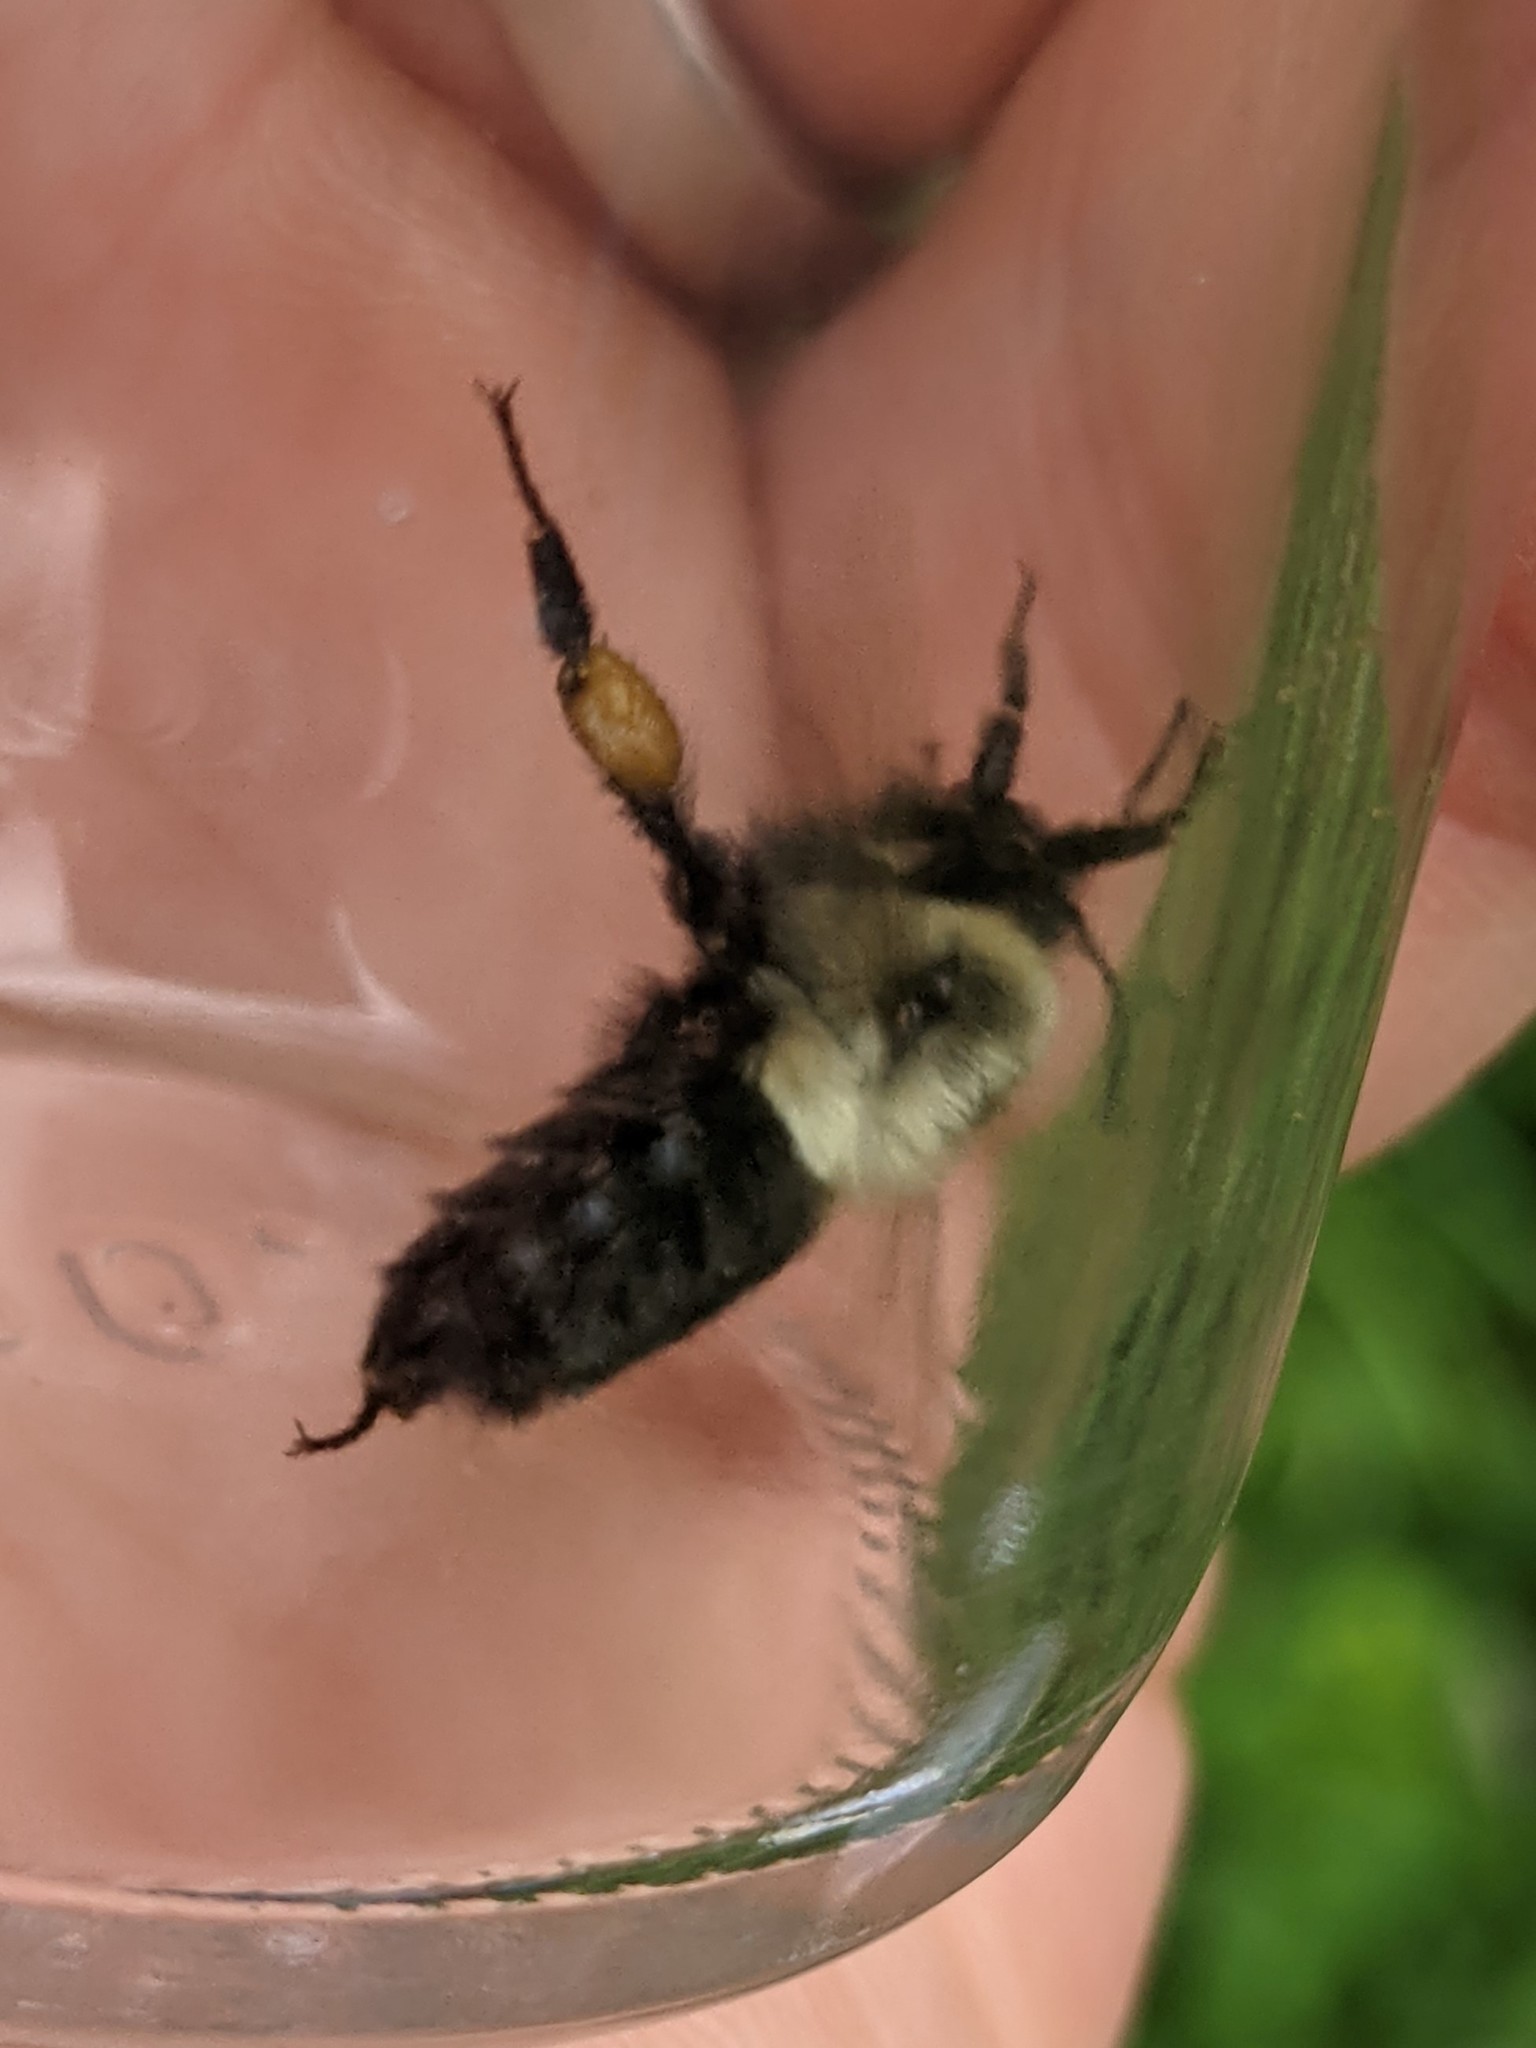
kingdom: Animalia
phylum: Arthropoda
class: Insecta
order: Hymenoptera
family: Apidae
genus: Bombus
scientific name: Bombus impatiens
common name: Common eastern bumble bee
